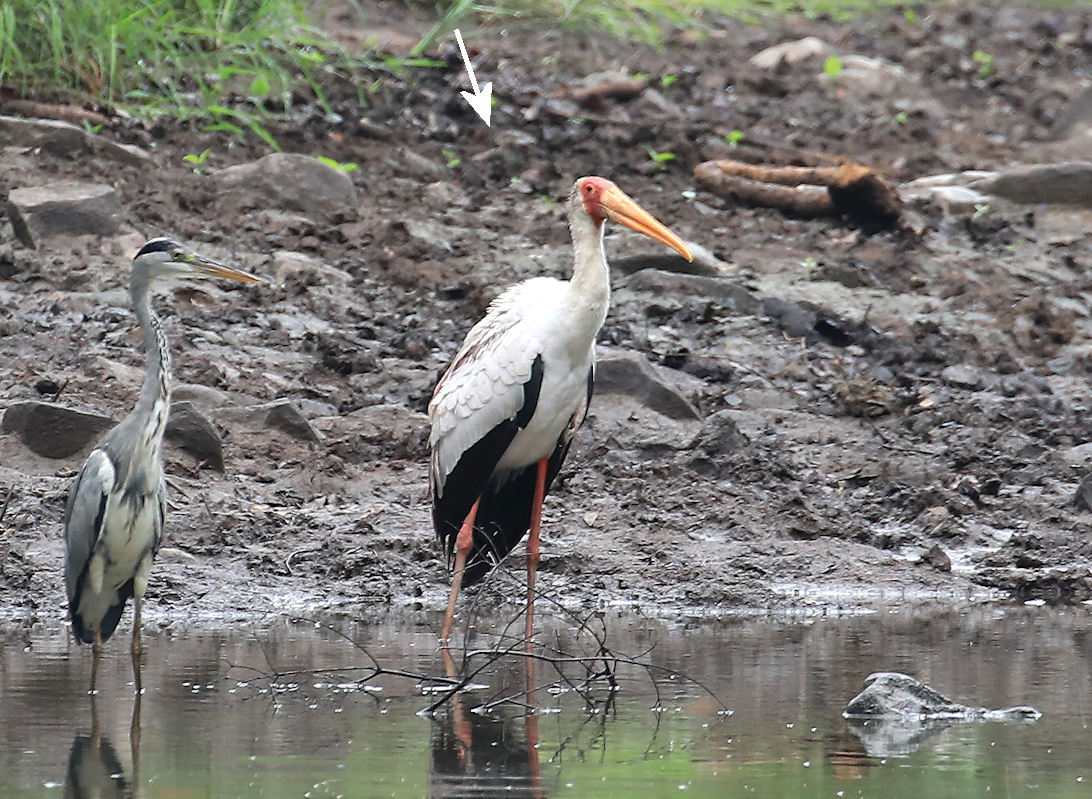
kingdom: Animalia
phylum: Chordata
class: Aves
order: Ciconiiformes
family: Ciconiidae
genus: Mycteria
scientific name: Mycteria ibis
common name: Yellow-billed stork
